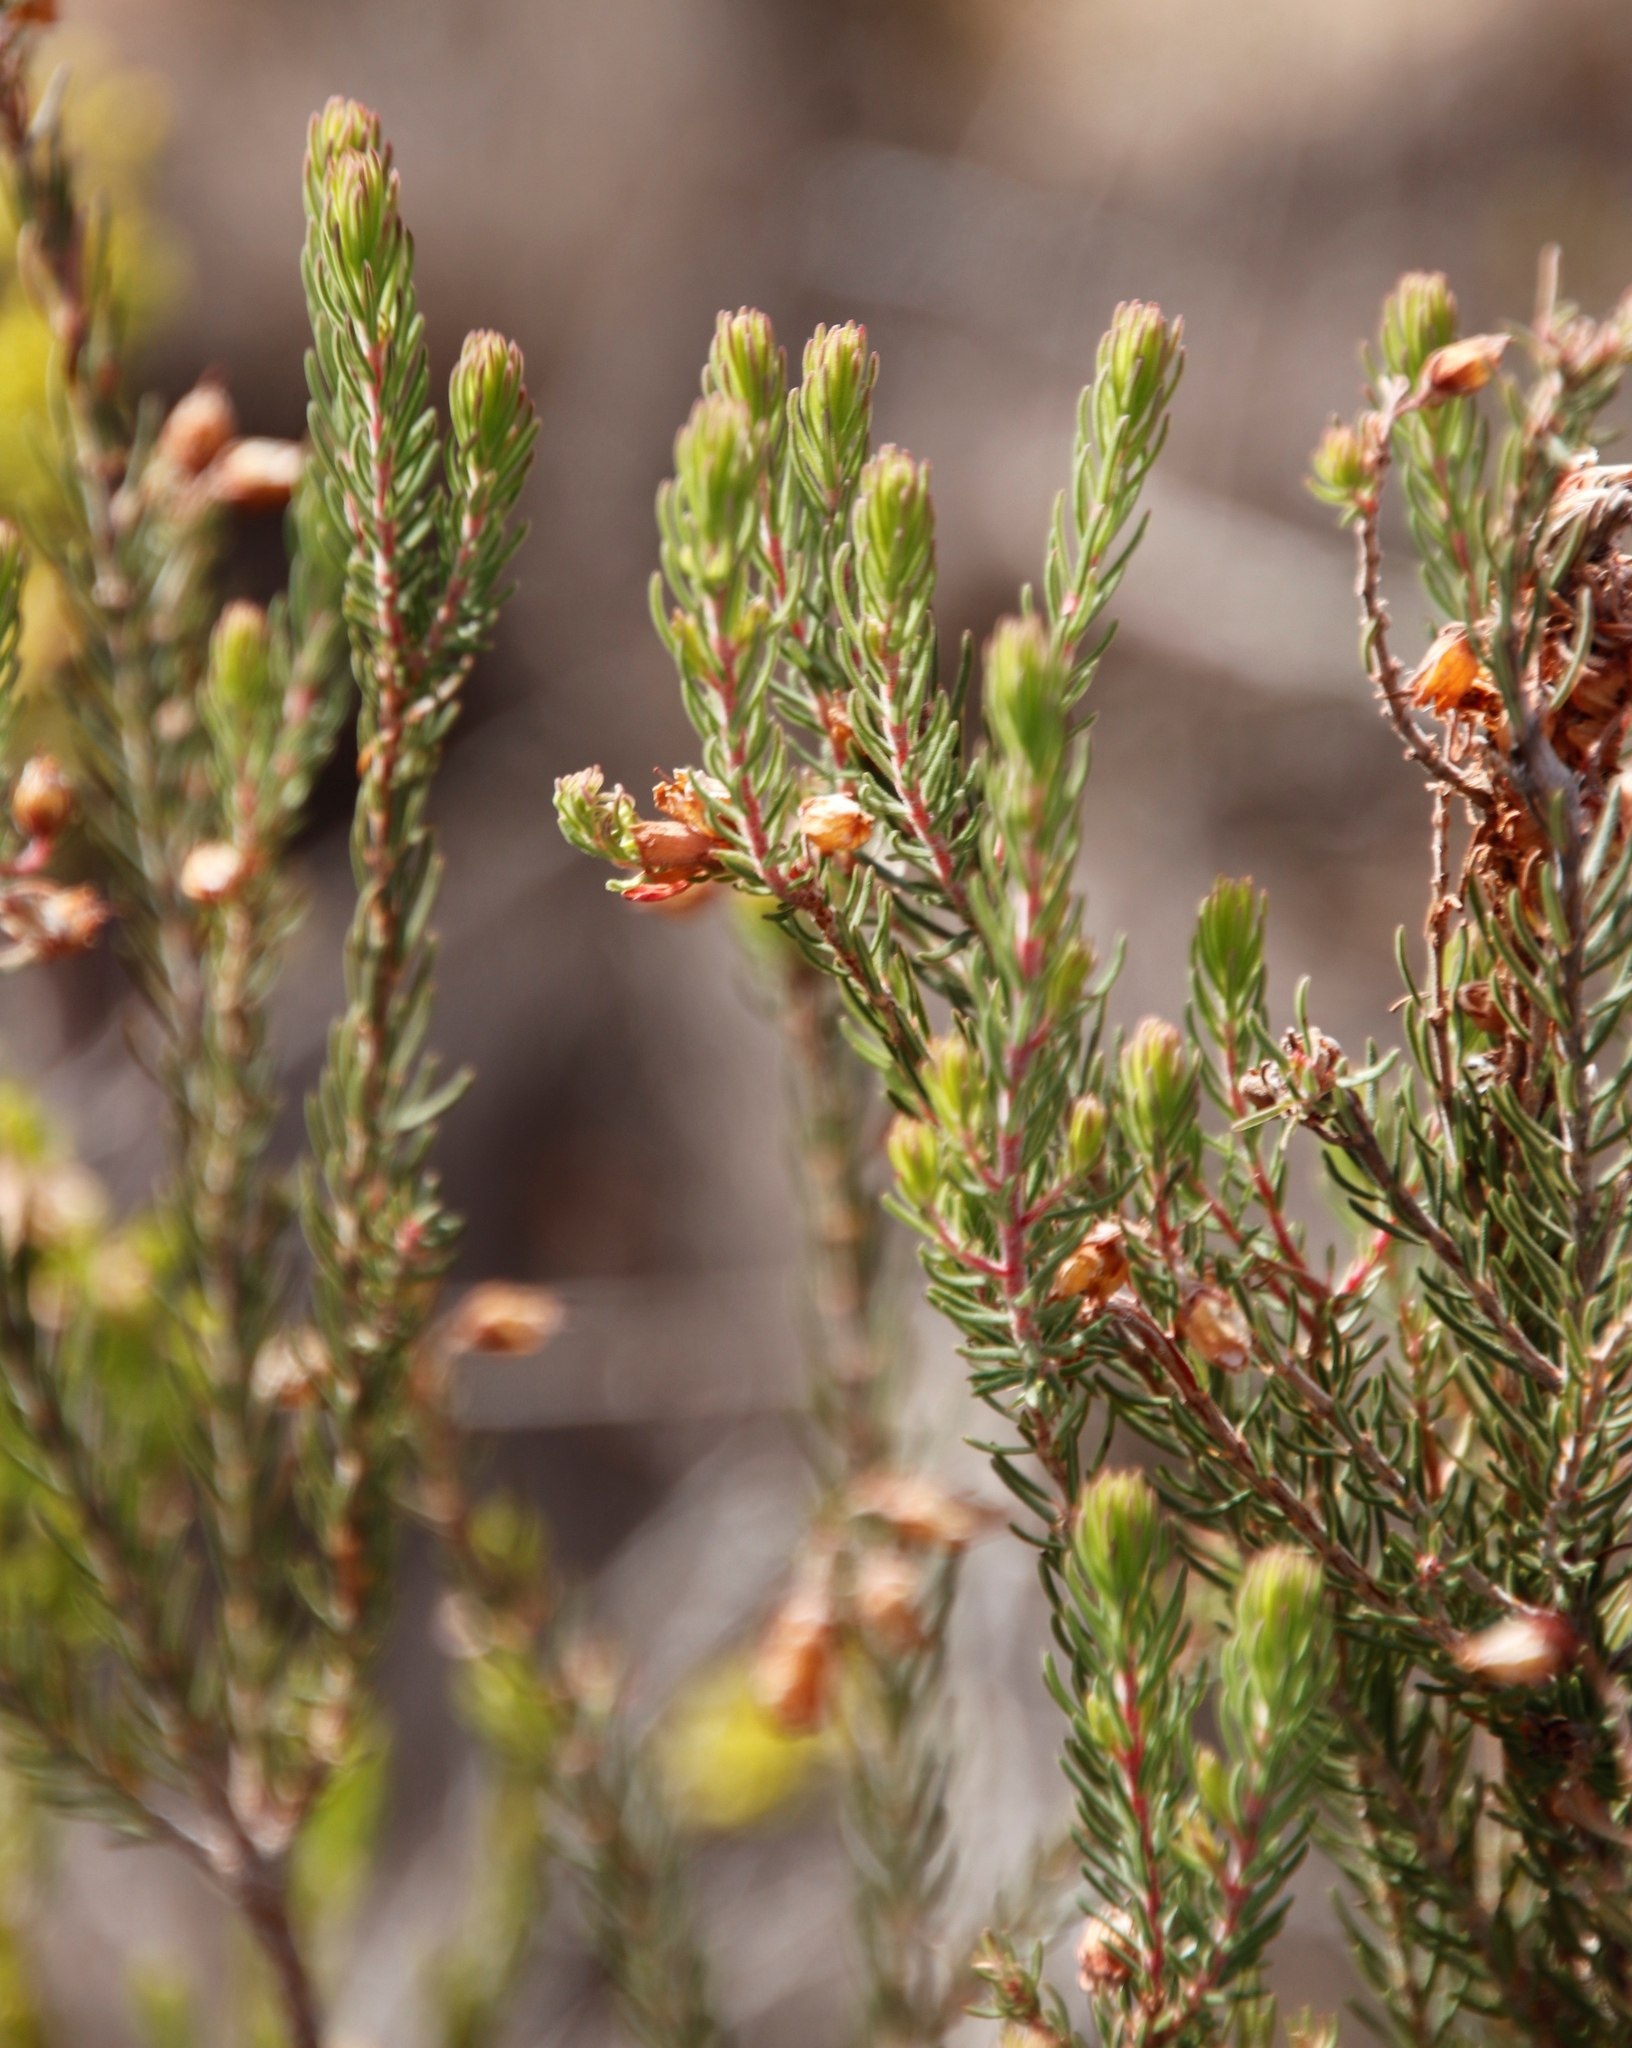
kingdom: Plantae
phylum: Tracheophyta
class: Magnoliopsida
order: Ericales
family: Ericaceae
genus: Erica
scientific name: Erica viscaria
